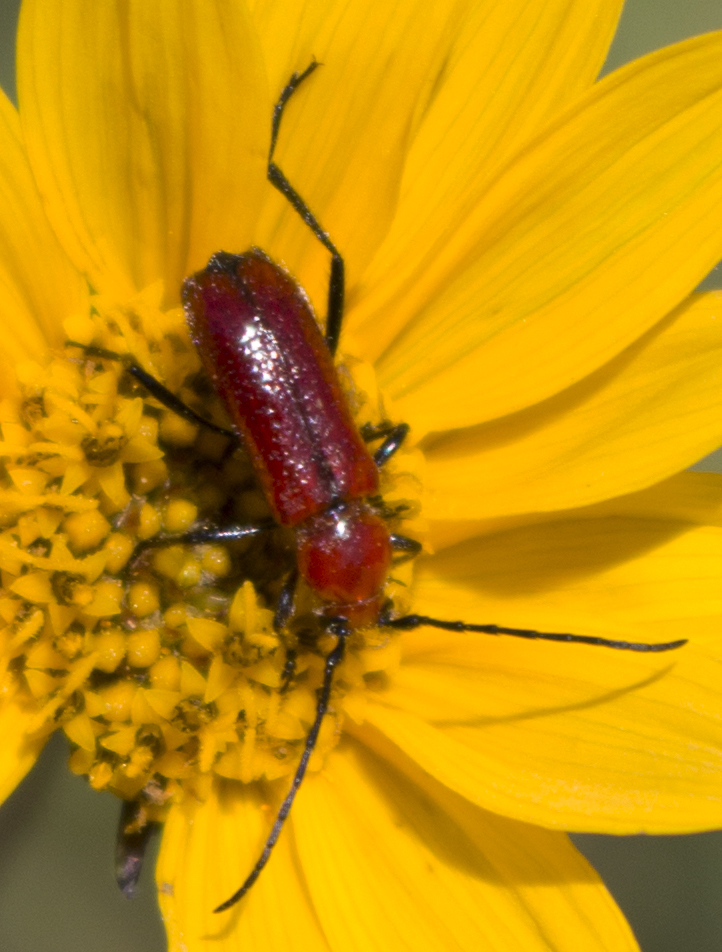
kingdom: Animalia
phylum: Arthropoda
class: Insecta
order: Coleoptera
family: Cerambycidae
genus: Batyle
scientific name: Batyle suturalis
